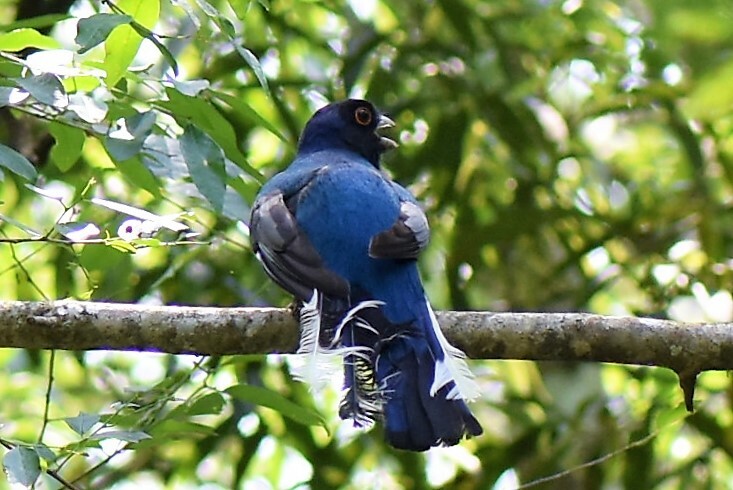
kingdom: Animalia
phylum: Chordata
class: Aves
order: Trogoniformes
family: Trogonidae
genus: Trogon
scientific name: Trogon surrucura
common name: Surucua trogon
